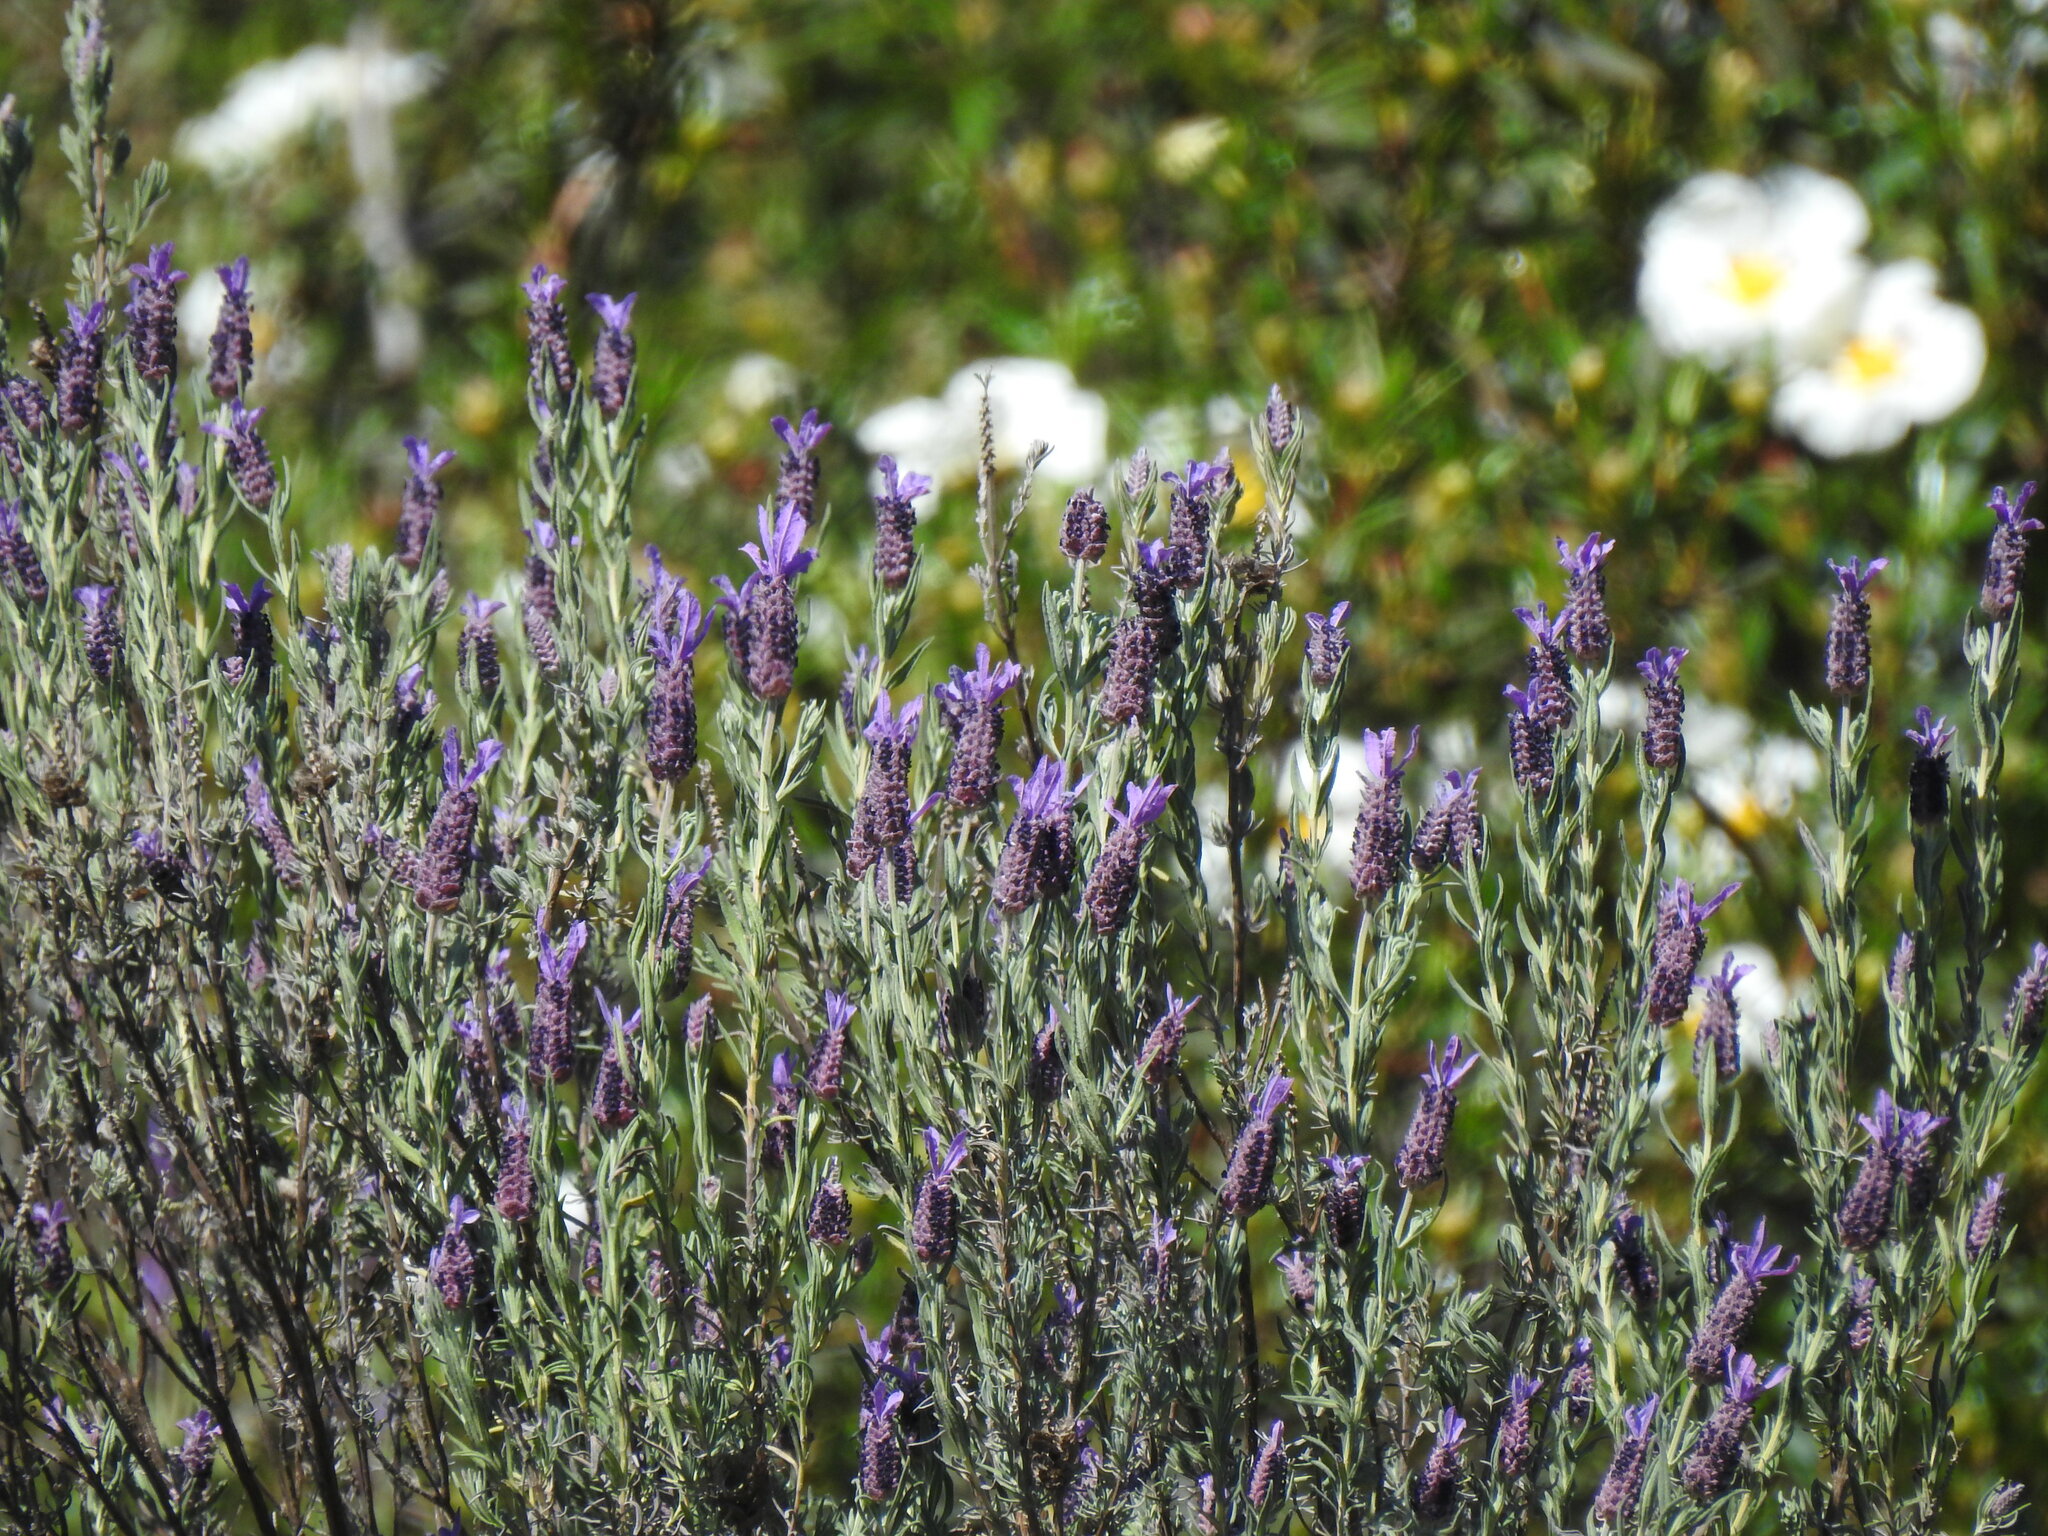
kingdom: Plantae
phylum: Tracheophyta
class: Magnoliopsida
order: Lamiales
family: Lamiaceae
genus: Lavandula
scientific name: Lavandula stoechas
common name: French lavender
